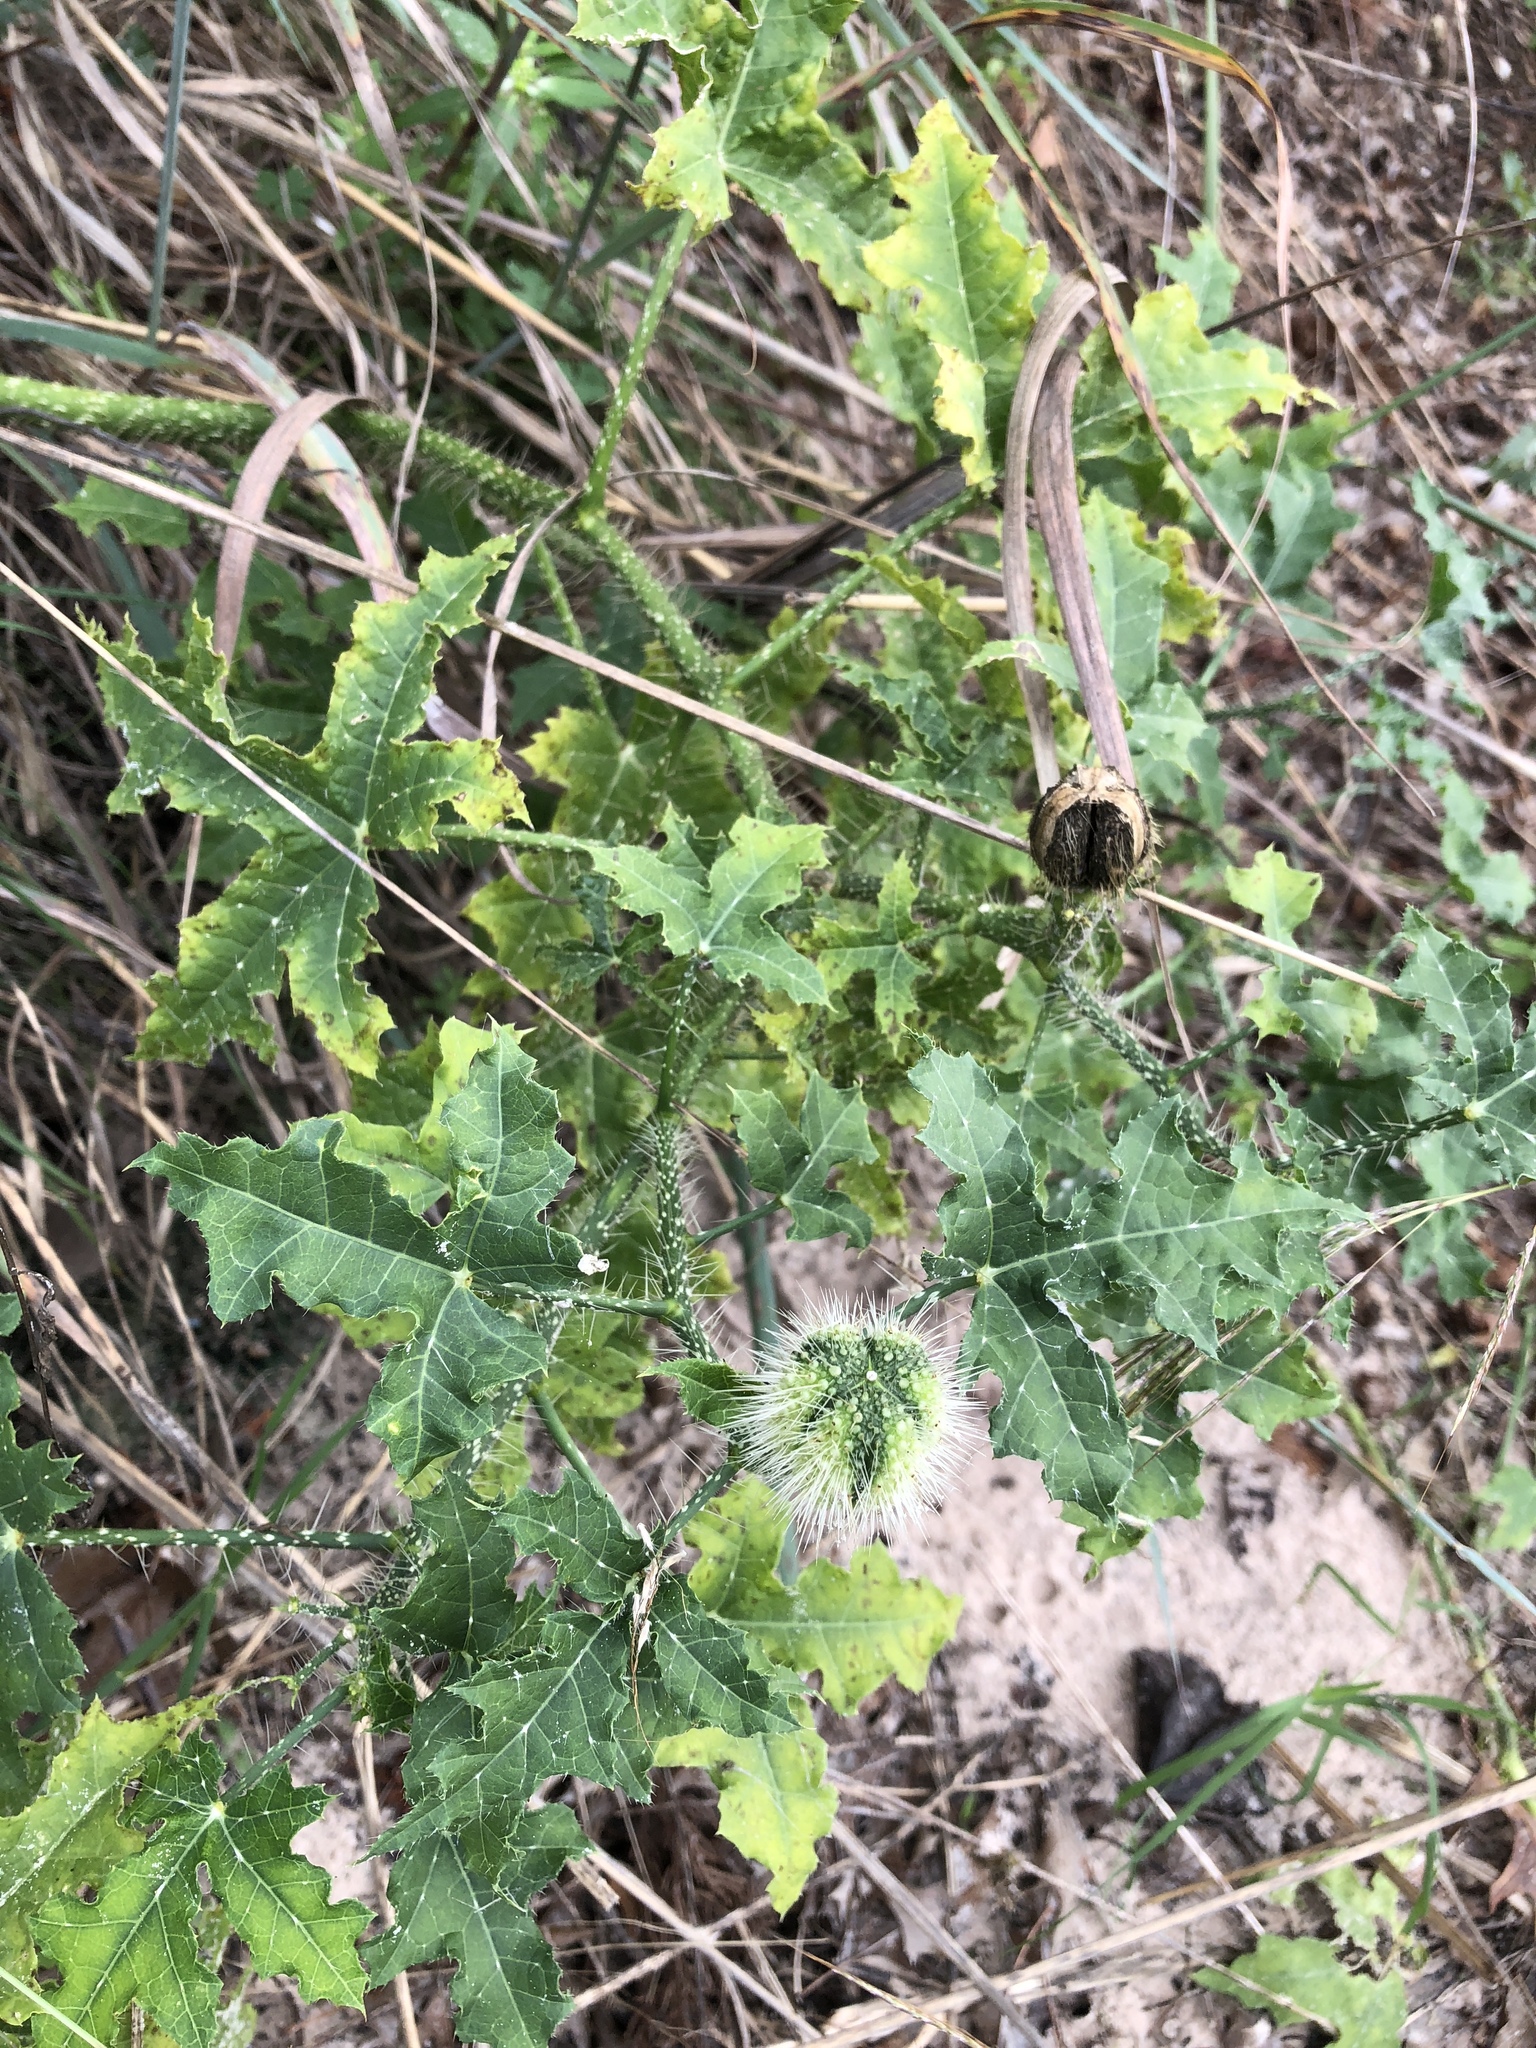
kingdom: Plantae
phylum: Tracheophyta
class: Magnoliopsida
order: Malpighiales
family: Euphorbiaceae
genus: Cnidoscolus
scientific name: Cnidoscolus texanus
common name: Texas bull-nettle
